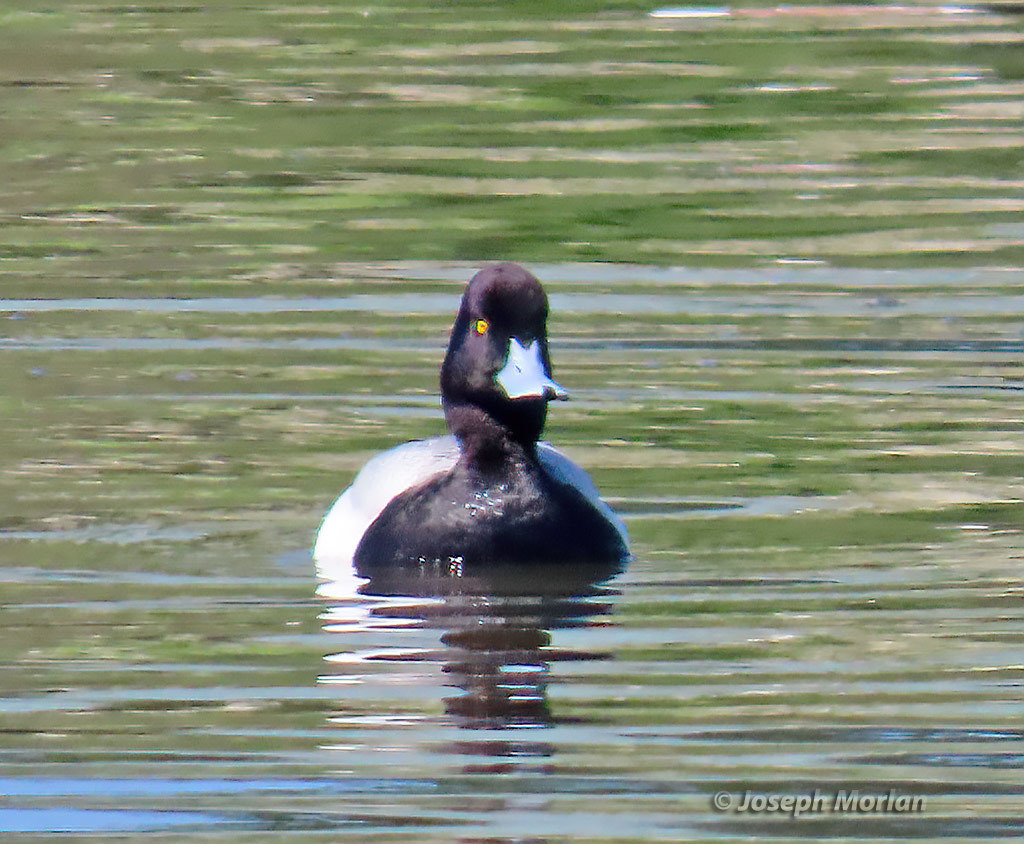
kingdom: Animalia
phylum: Chordata
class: Aves
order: Anseriformes
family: Anatidae
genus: Aythya
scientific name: Aythya affinis
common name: Lesser scaup
